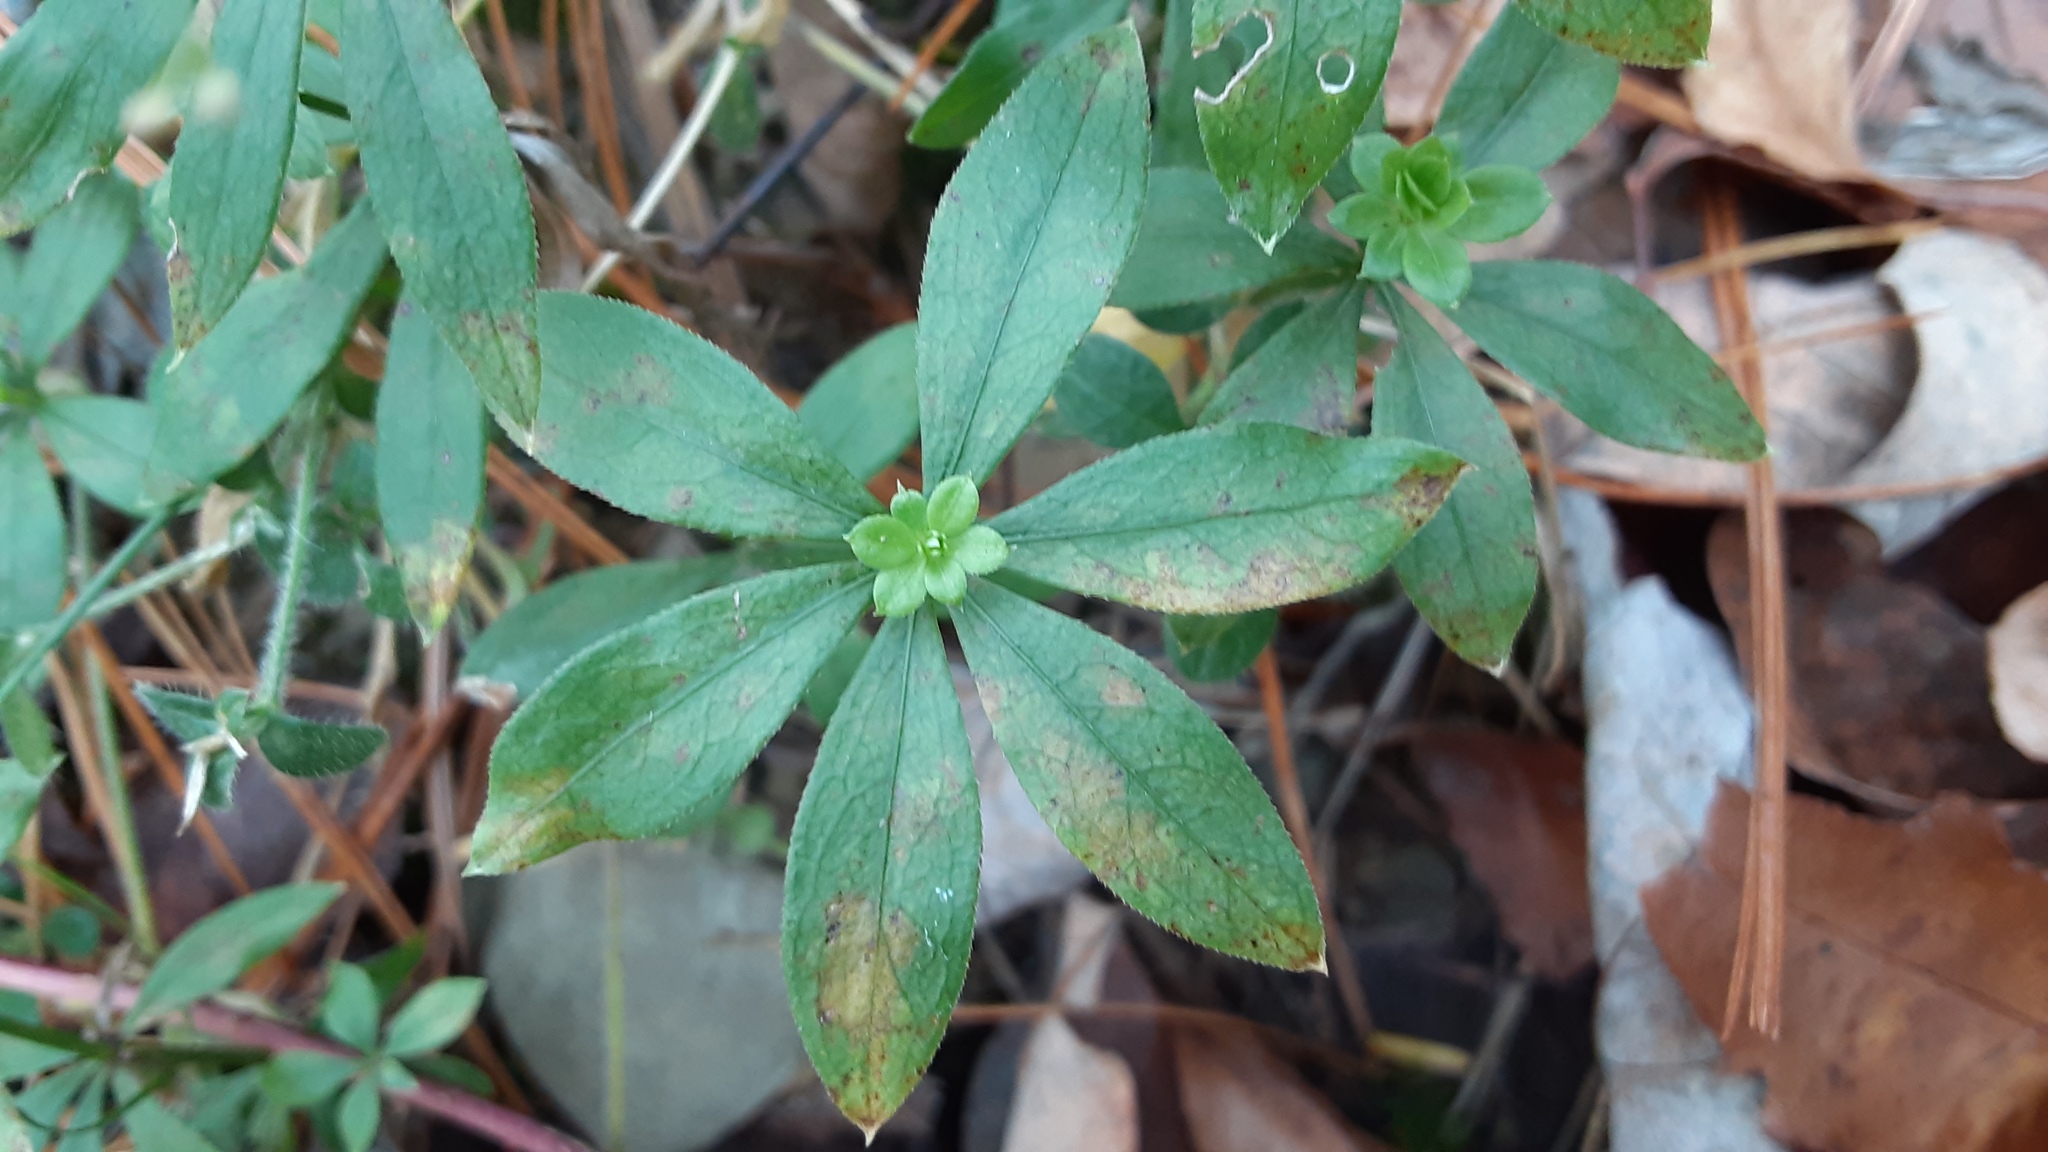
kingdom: Plantae
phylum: Tracheophyta
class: Magnoliopsida
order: Gentianales
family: Rubiaceae
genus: Galium
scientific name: Galium odoratum
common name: Sweet woodruff
